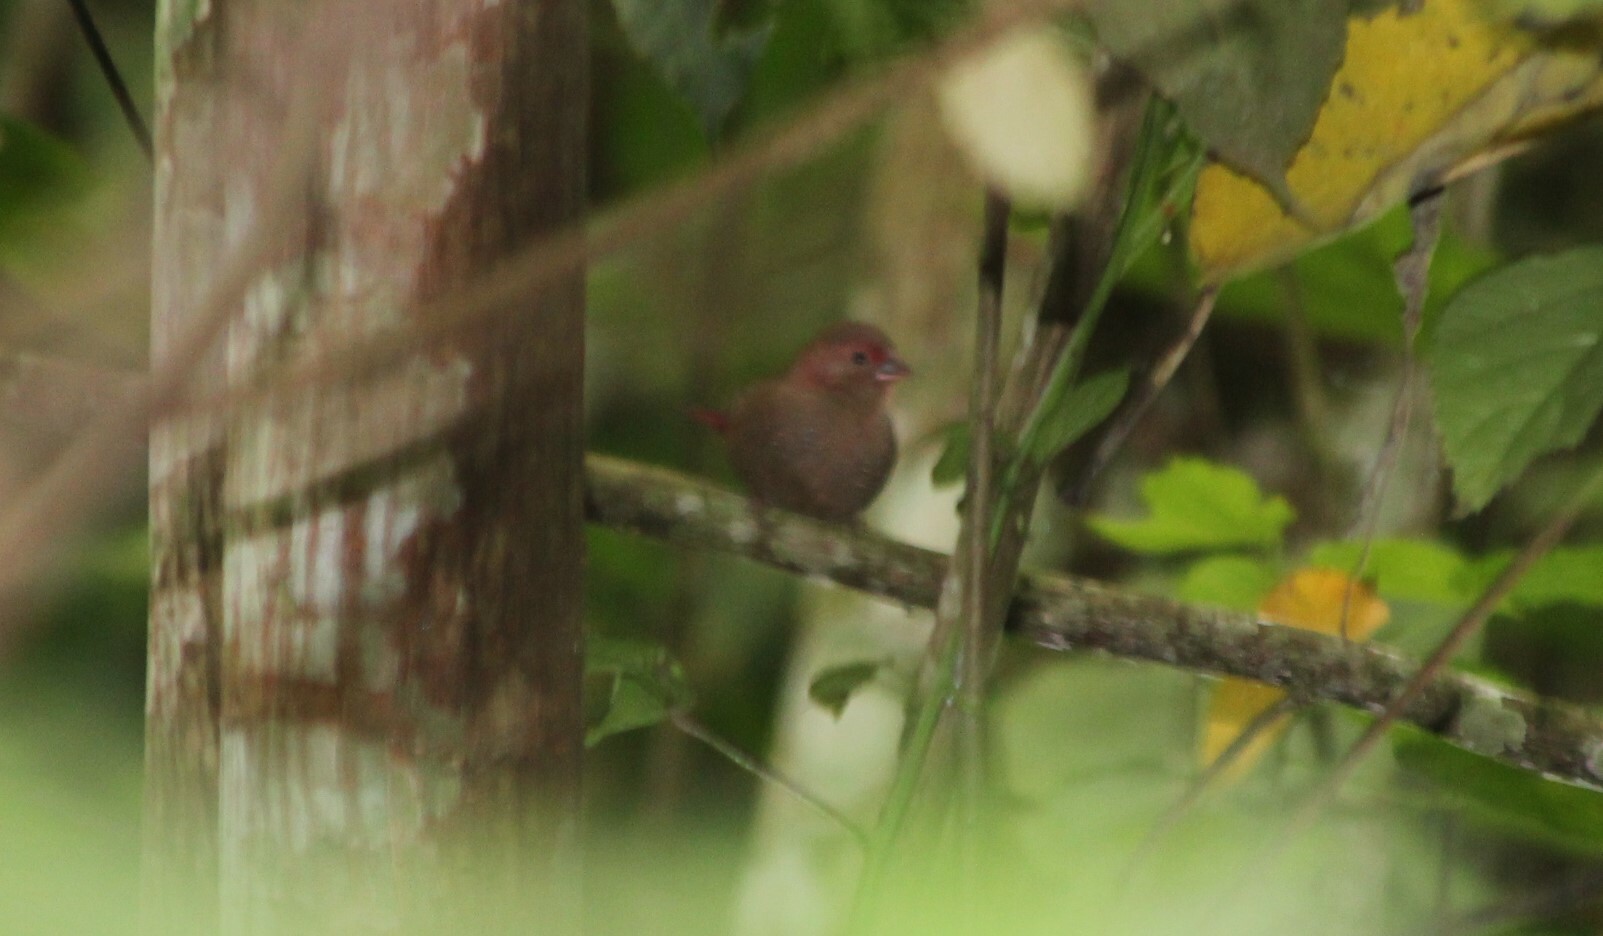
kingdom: Animalia
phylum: Chordata
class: Aves
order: Passeriformes
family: Estrildidae
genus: Lagonosticta
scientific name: Lagonosticta senegala
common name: Red-billed firefinch
